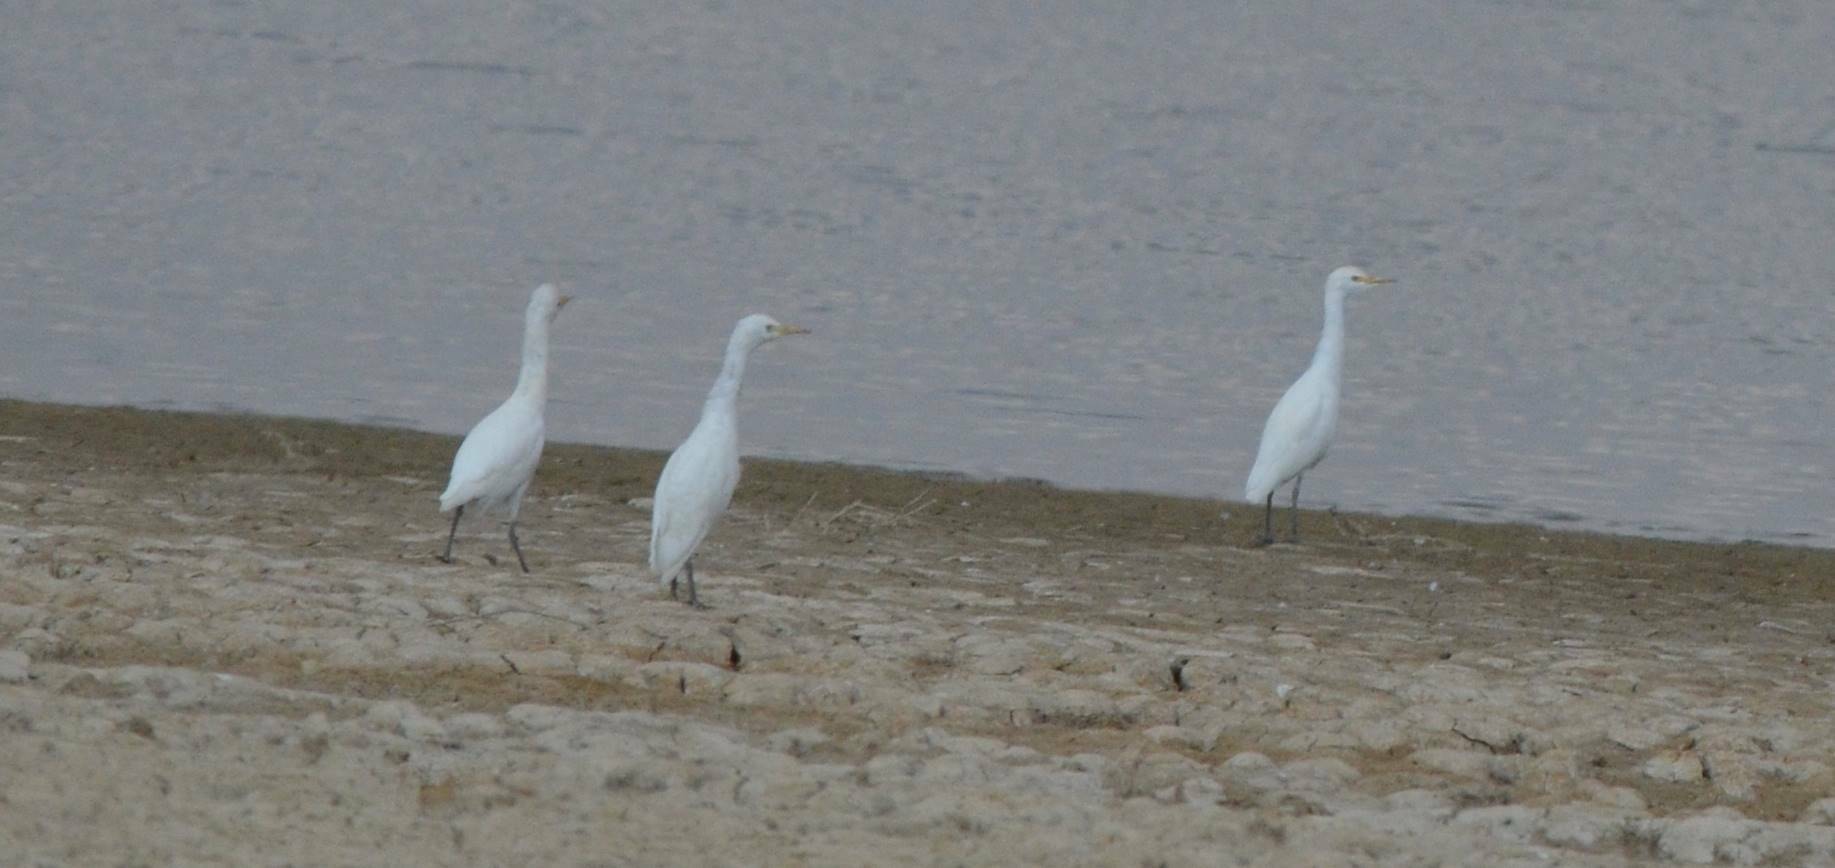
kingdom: Animalia
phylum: Chordata
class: Aves
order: Pelecaniformes
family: Ardeidae
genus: Bubulcus
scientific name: Bubulcus ibis
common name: Cattle egret
